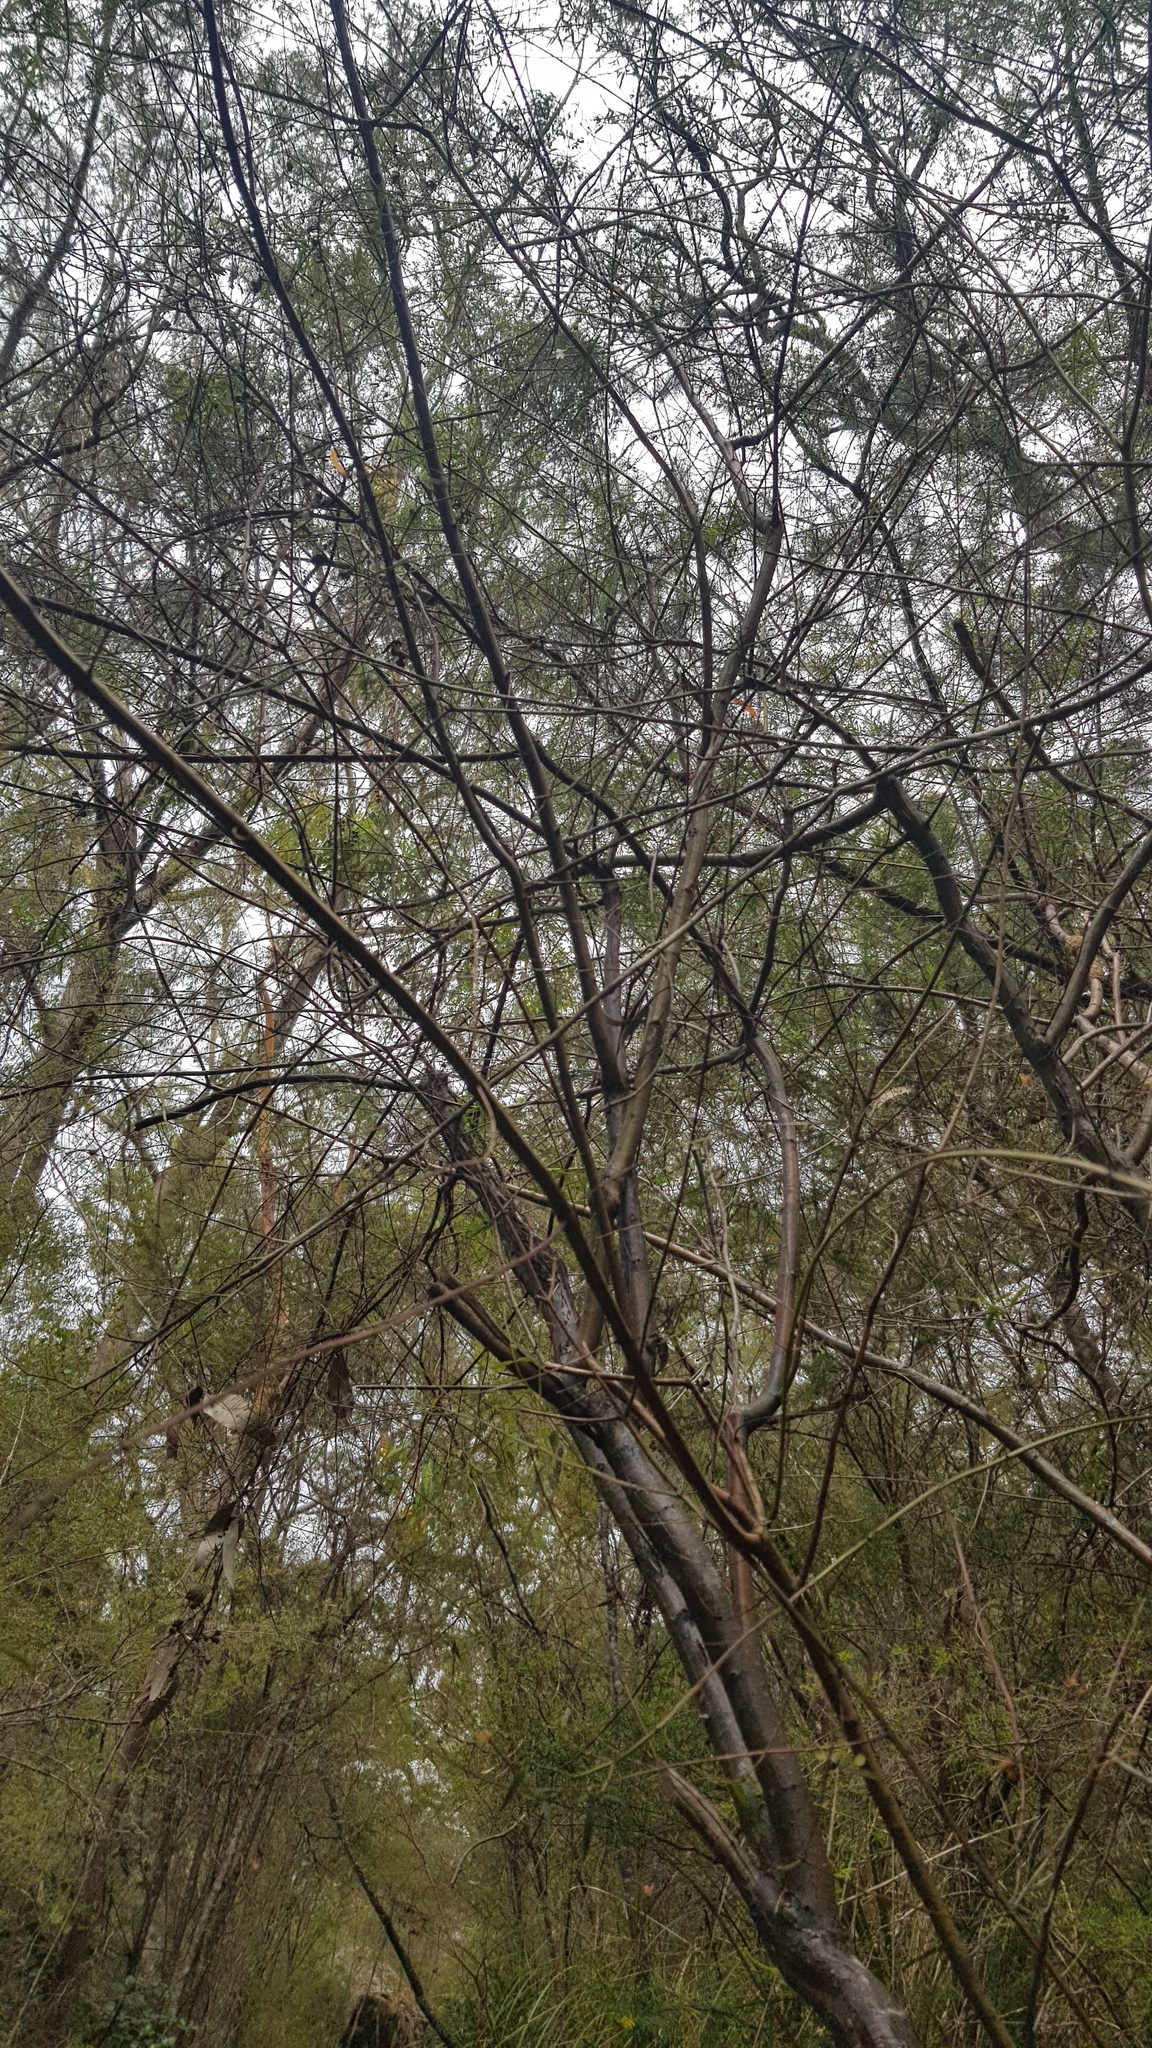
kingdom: Plantae
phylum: Tracheophyta
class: Magnoliopsida
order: Lamiales
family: Lamiaceae
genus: Prostanthera
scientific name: Prostanthera linearis
